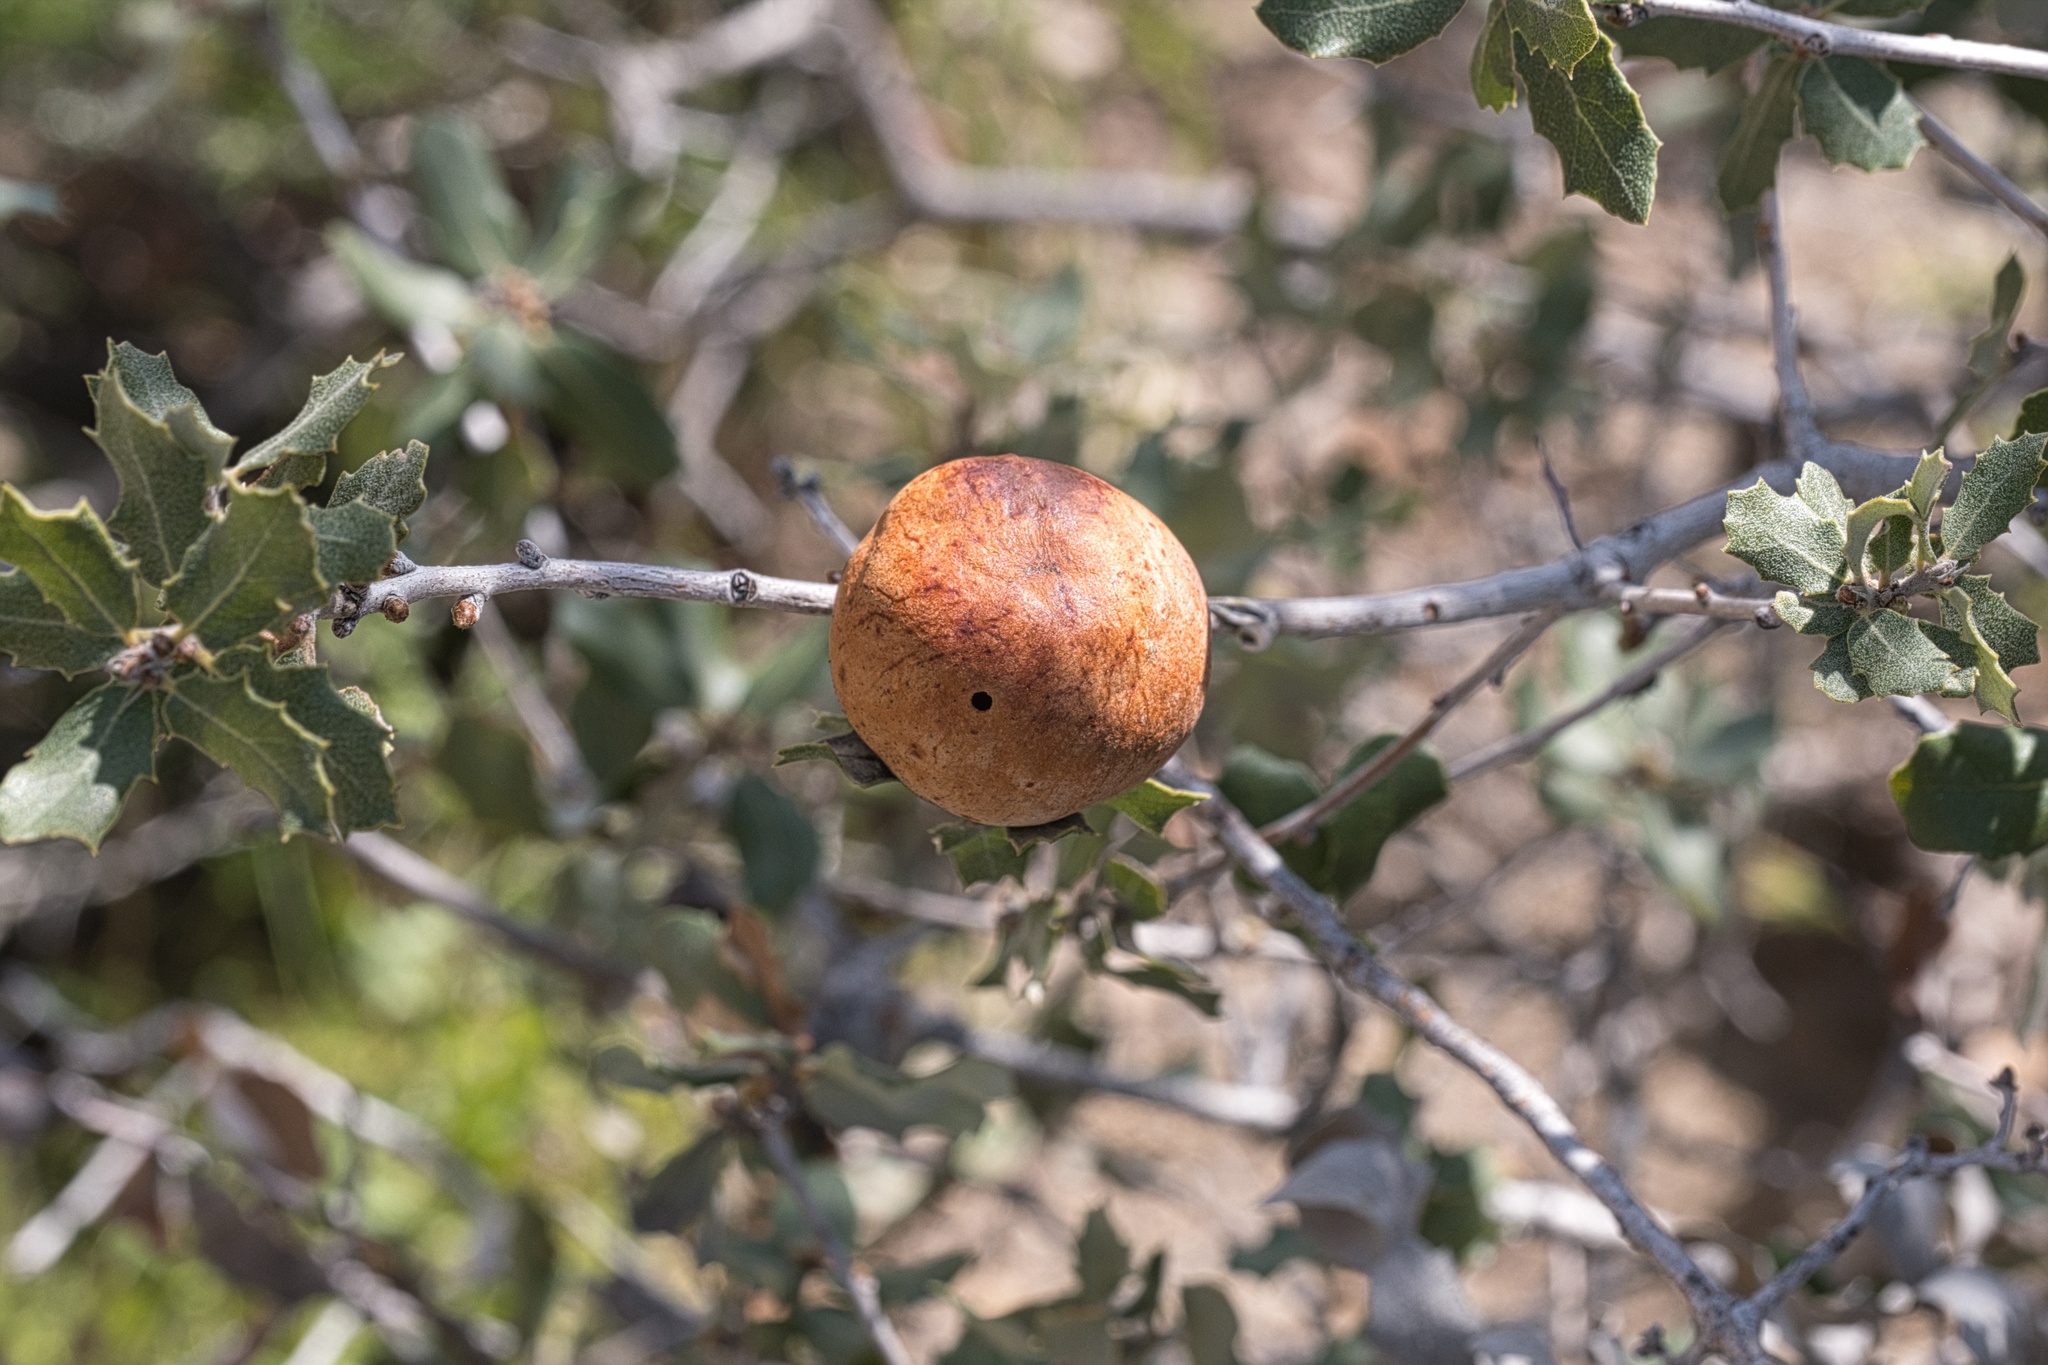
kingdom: Animalia
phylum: Arthropoda
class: Insecta
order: Hymenoptera
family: Cynipidae
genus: Andricus
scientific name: Andricus quercuscalifornicus
